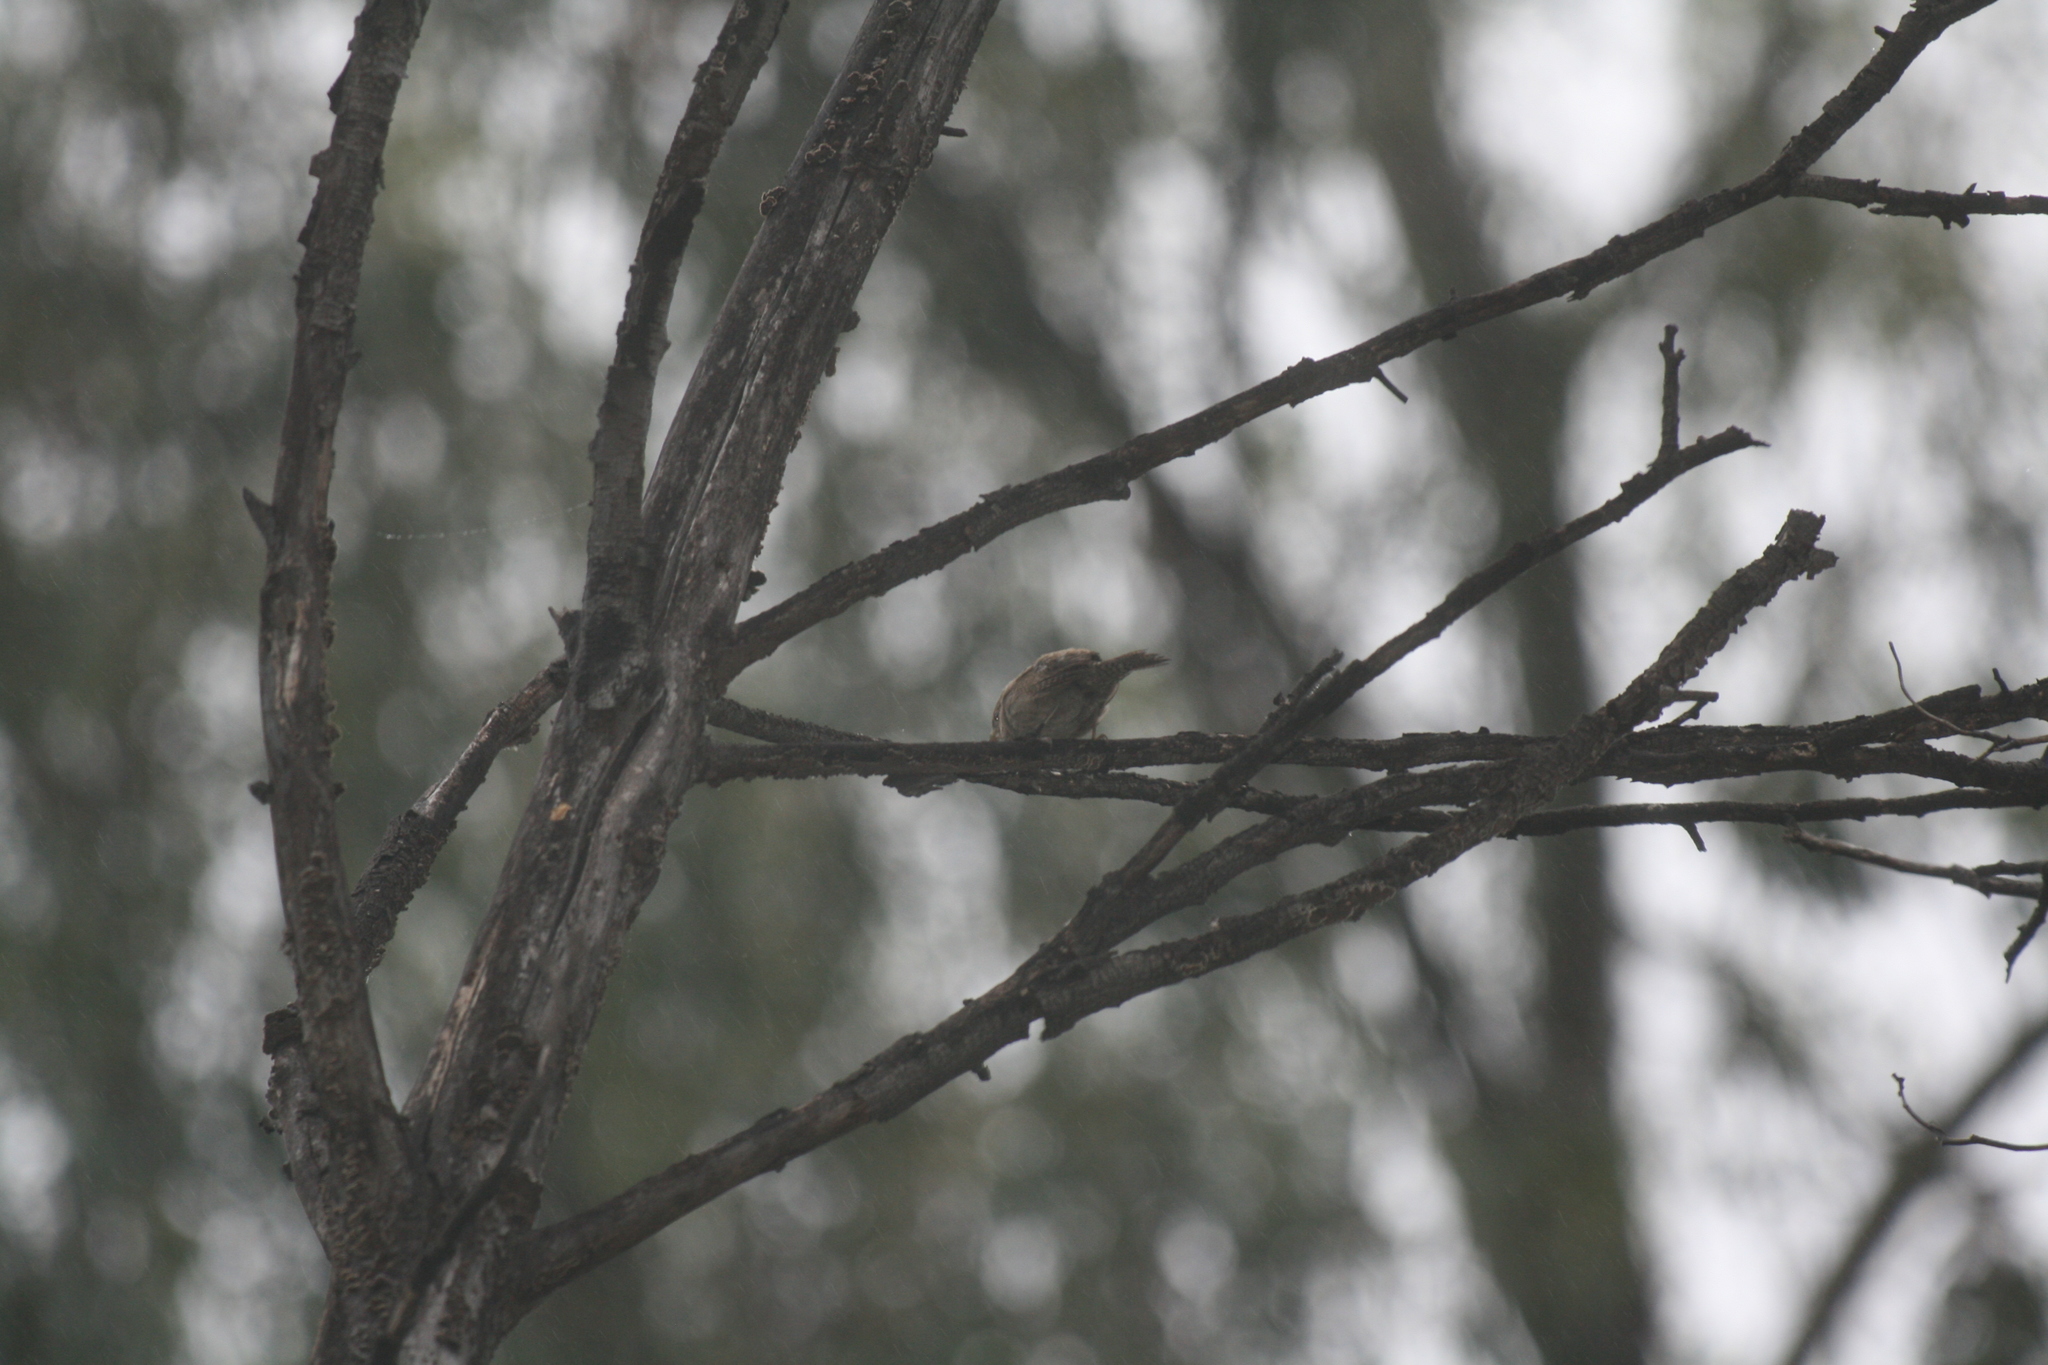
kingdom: Animalia
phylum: Chordata
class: Aves
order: Passeriformes
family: Troglodytidae
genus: Troglodytes
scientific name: Troglodytes aedon
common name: House wren
